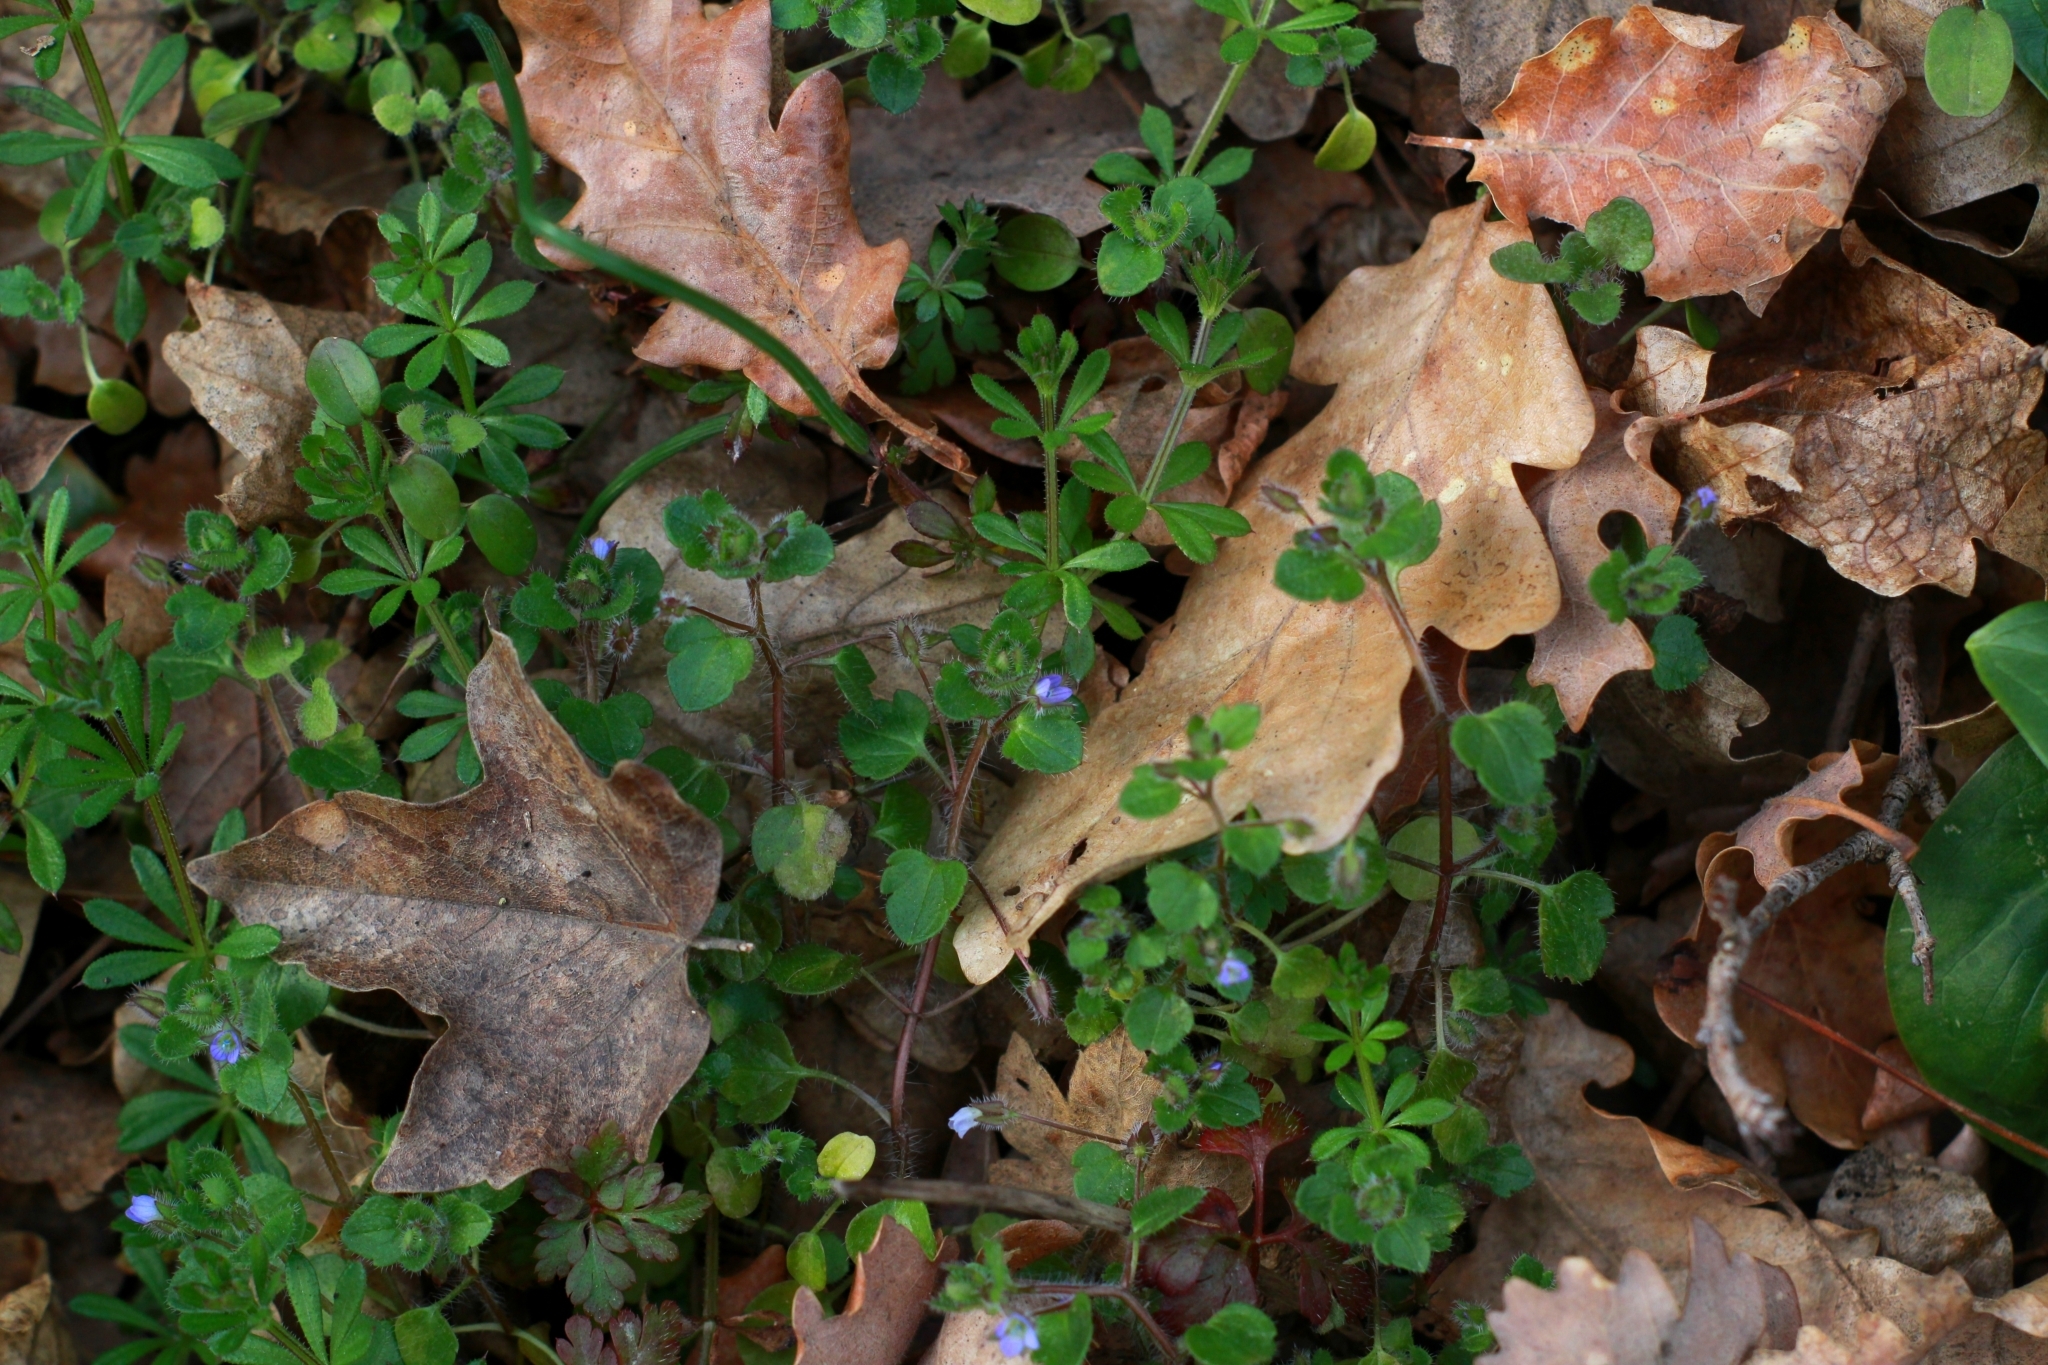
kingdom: Plantae
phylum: Tracheophyta
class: Magnoliopsida
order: Lamiales
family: Plantaginaceae
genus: Veronica
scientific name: Veronica hederifolia
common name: Ivy-leaved speedwell
